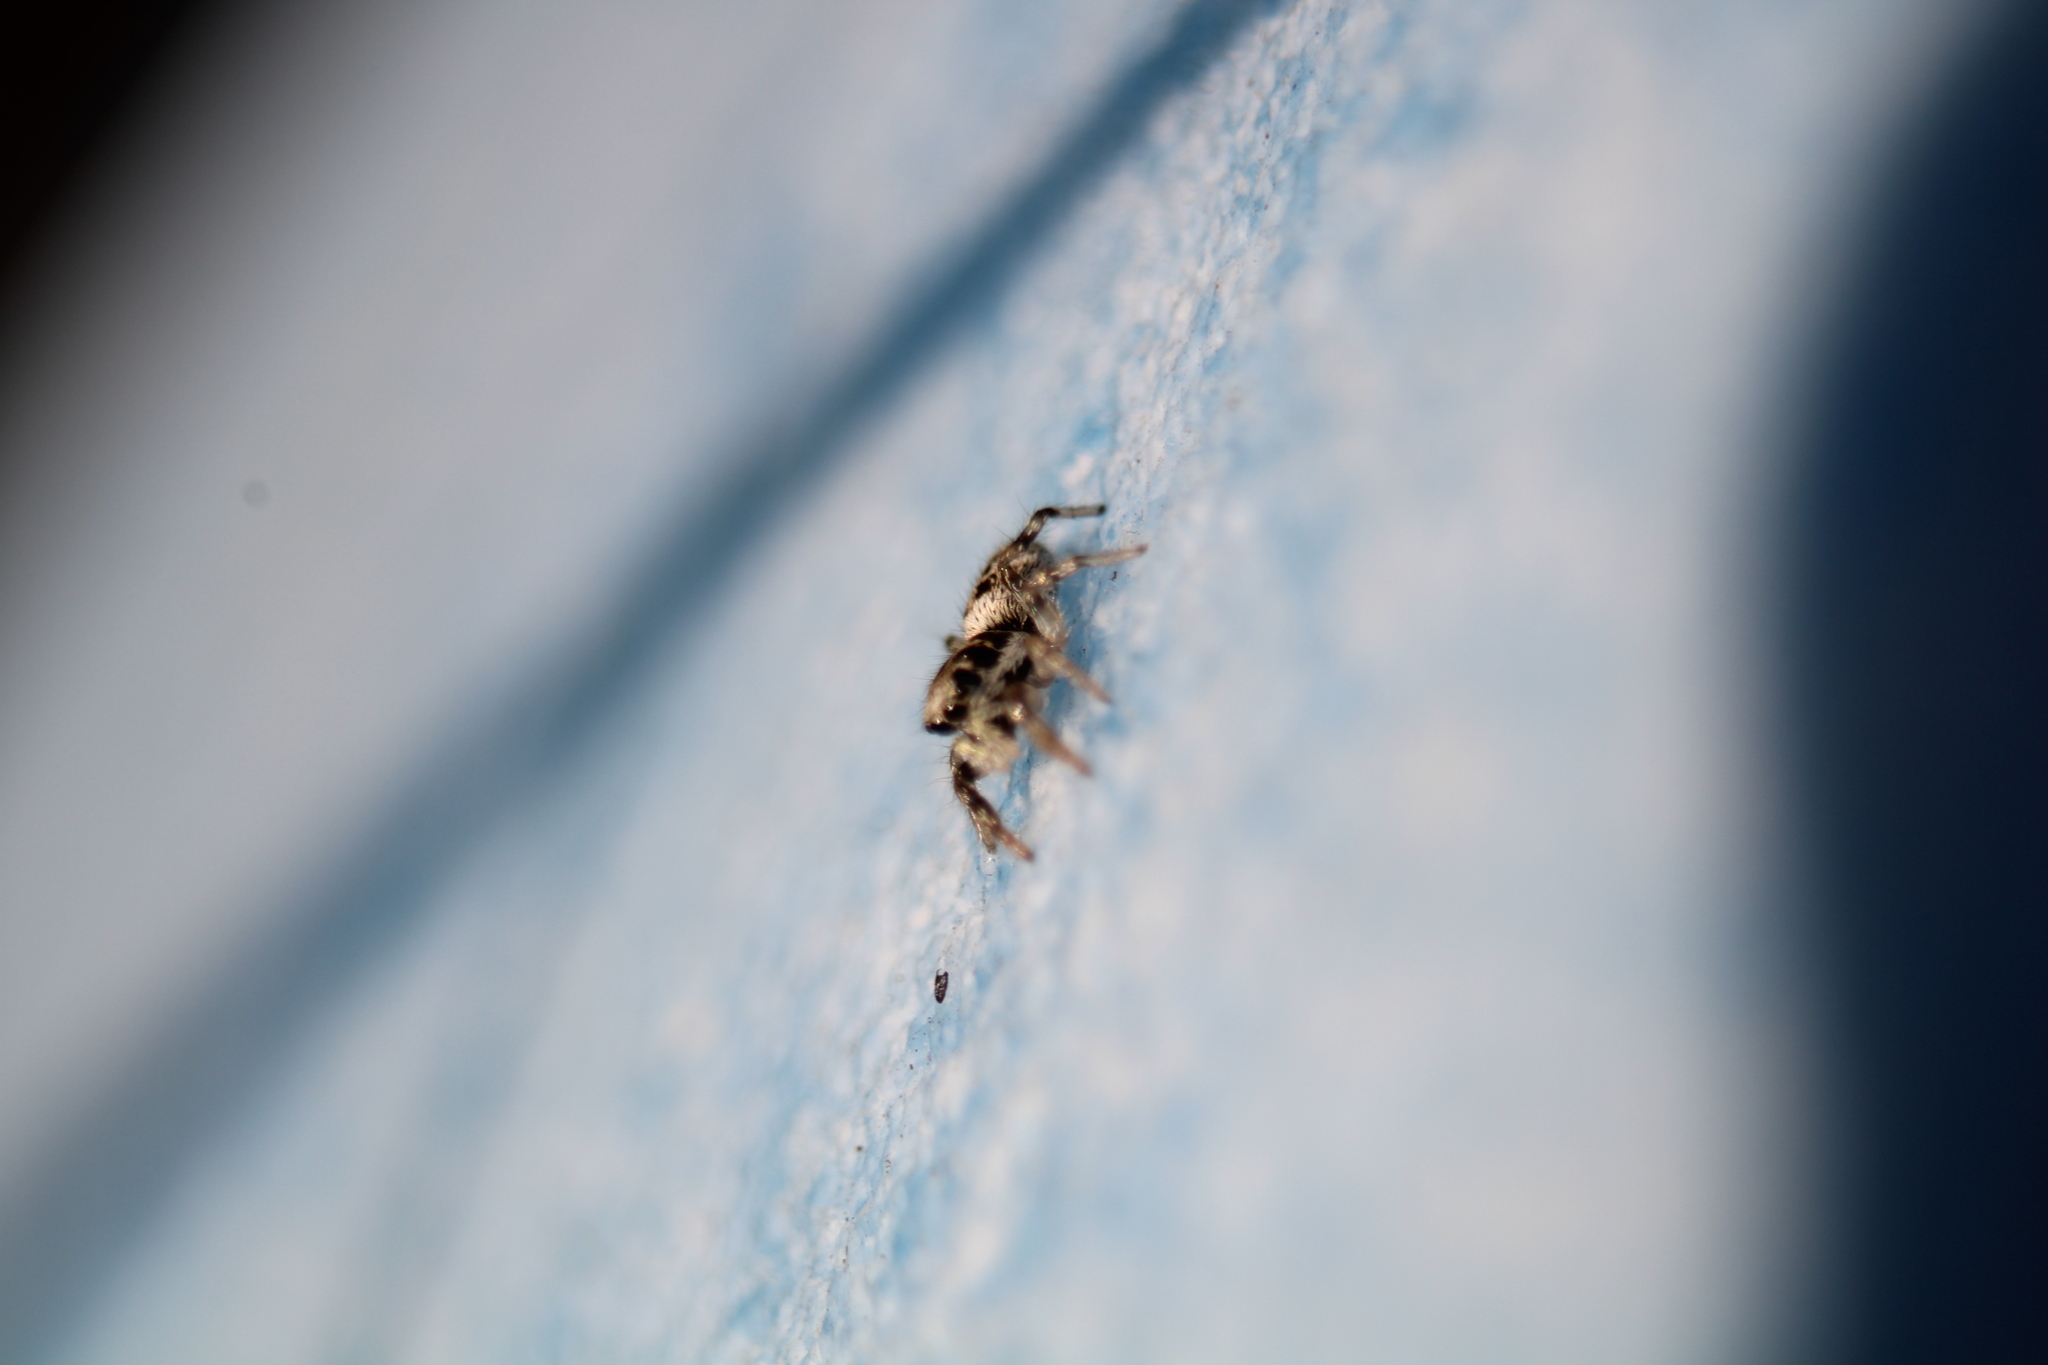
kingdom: Animalia
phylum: Arthropoda
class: Arachnida
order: Araneae
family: Salticidae
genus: Salticus
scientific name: Salticus scenicus
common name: Zebra jumper
